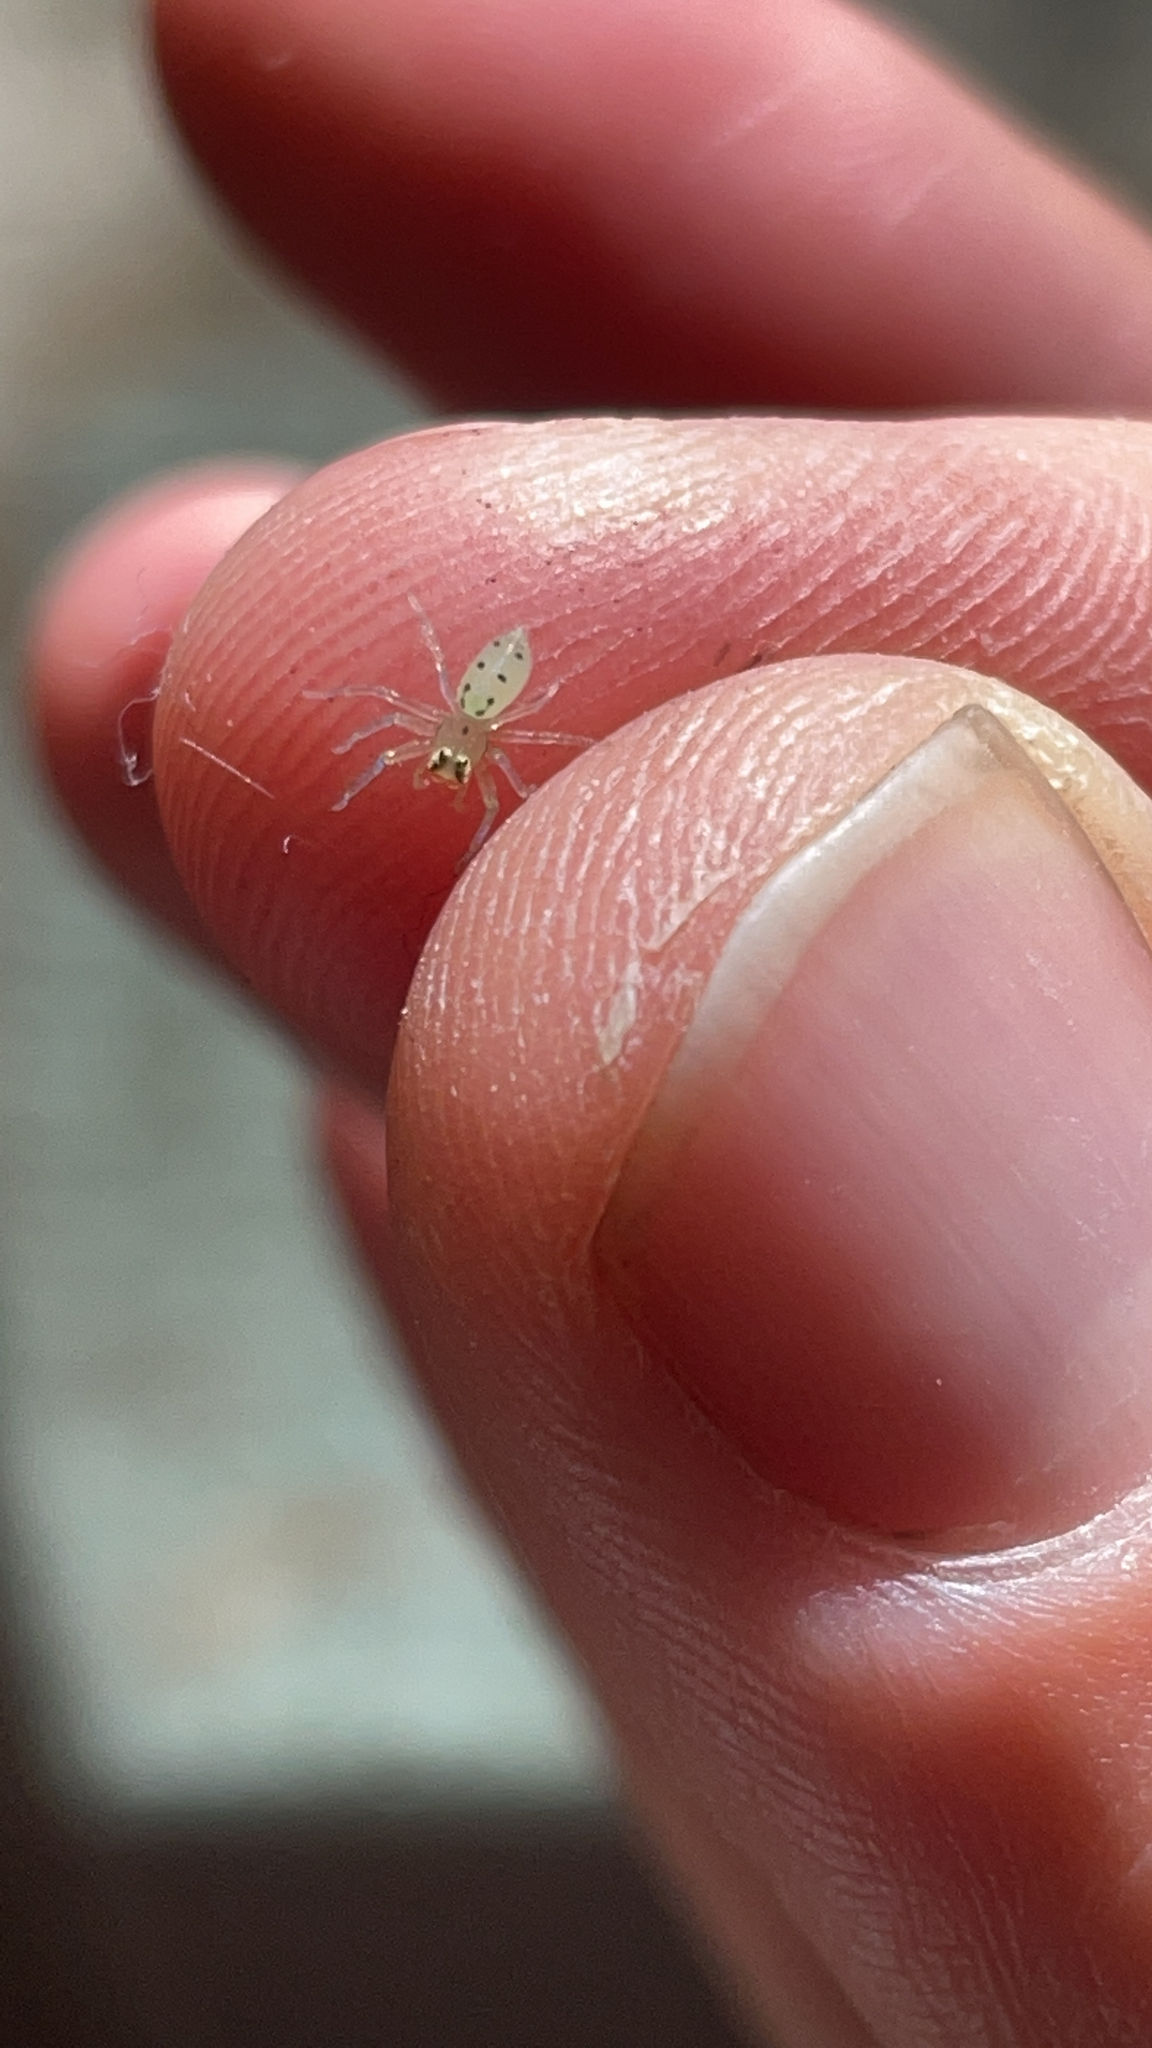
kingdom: Animalia
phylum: Arthropoda
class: Arachnida
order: Araneae
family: Salticidae
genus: Lyssomanes
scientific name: Lyssomanes viridis
